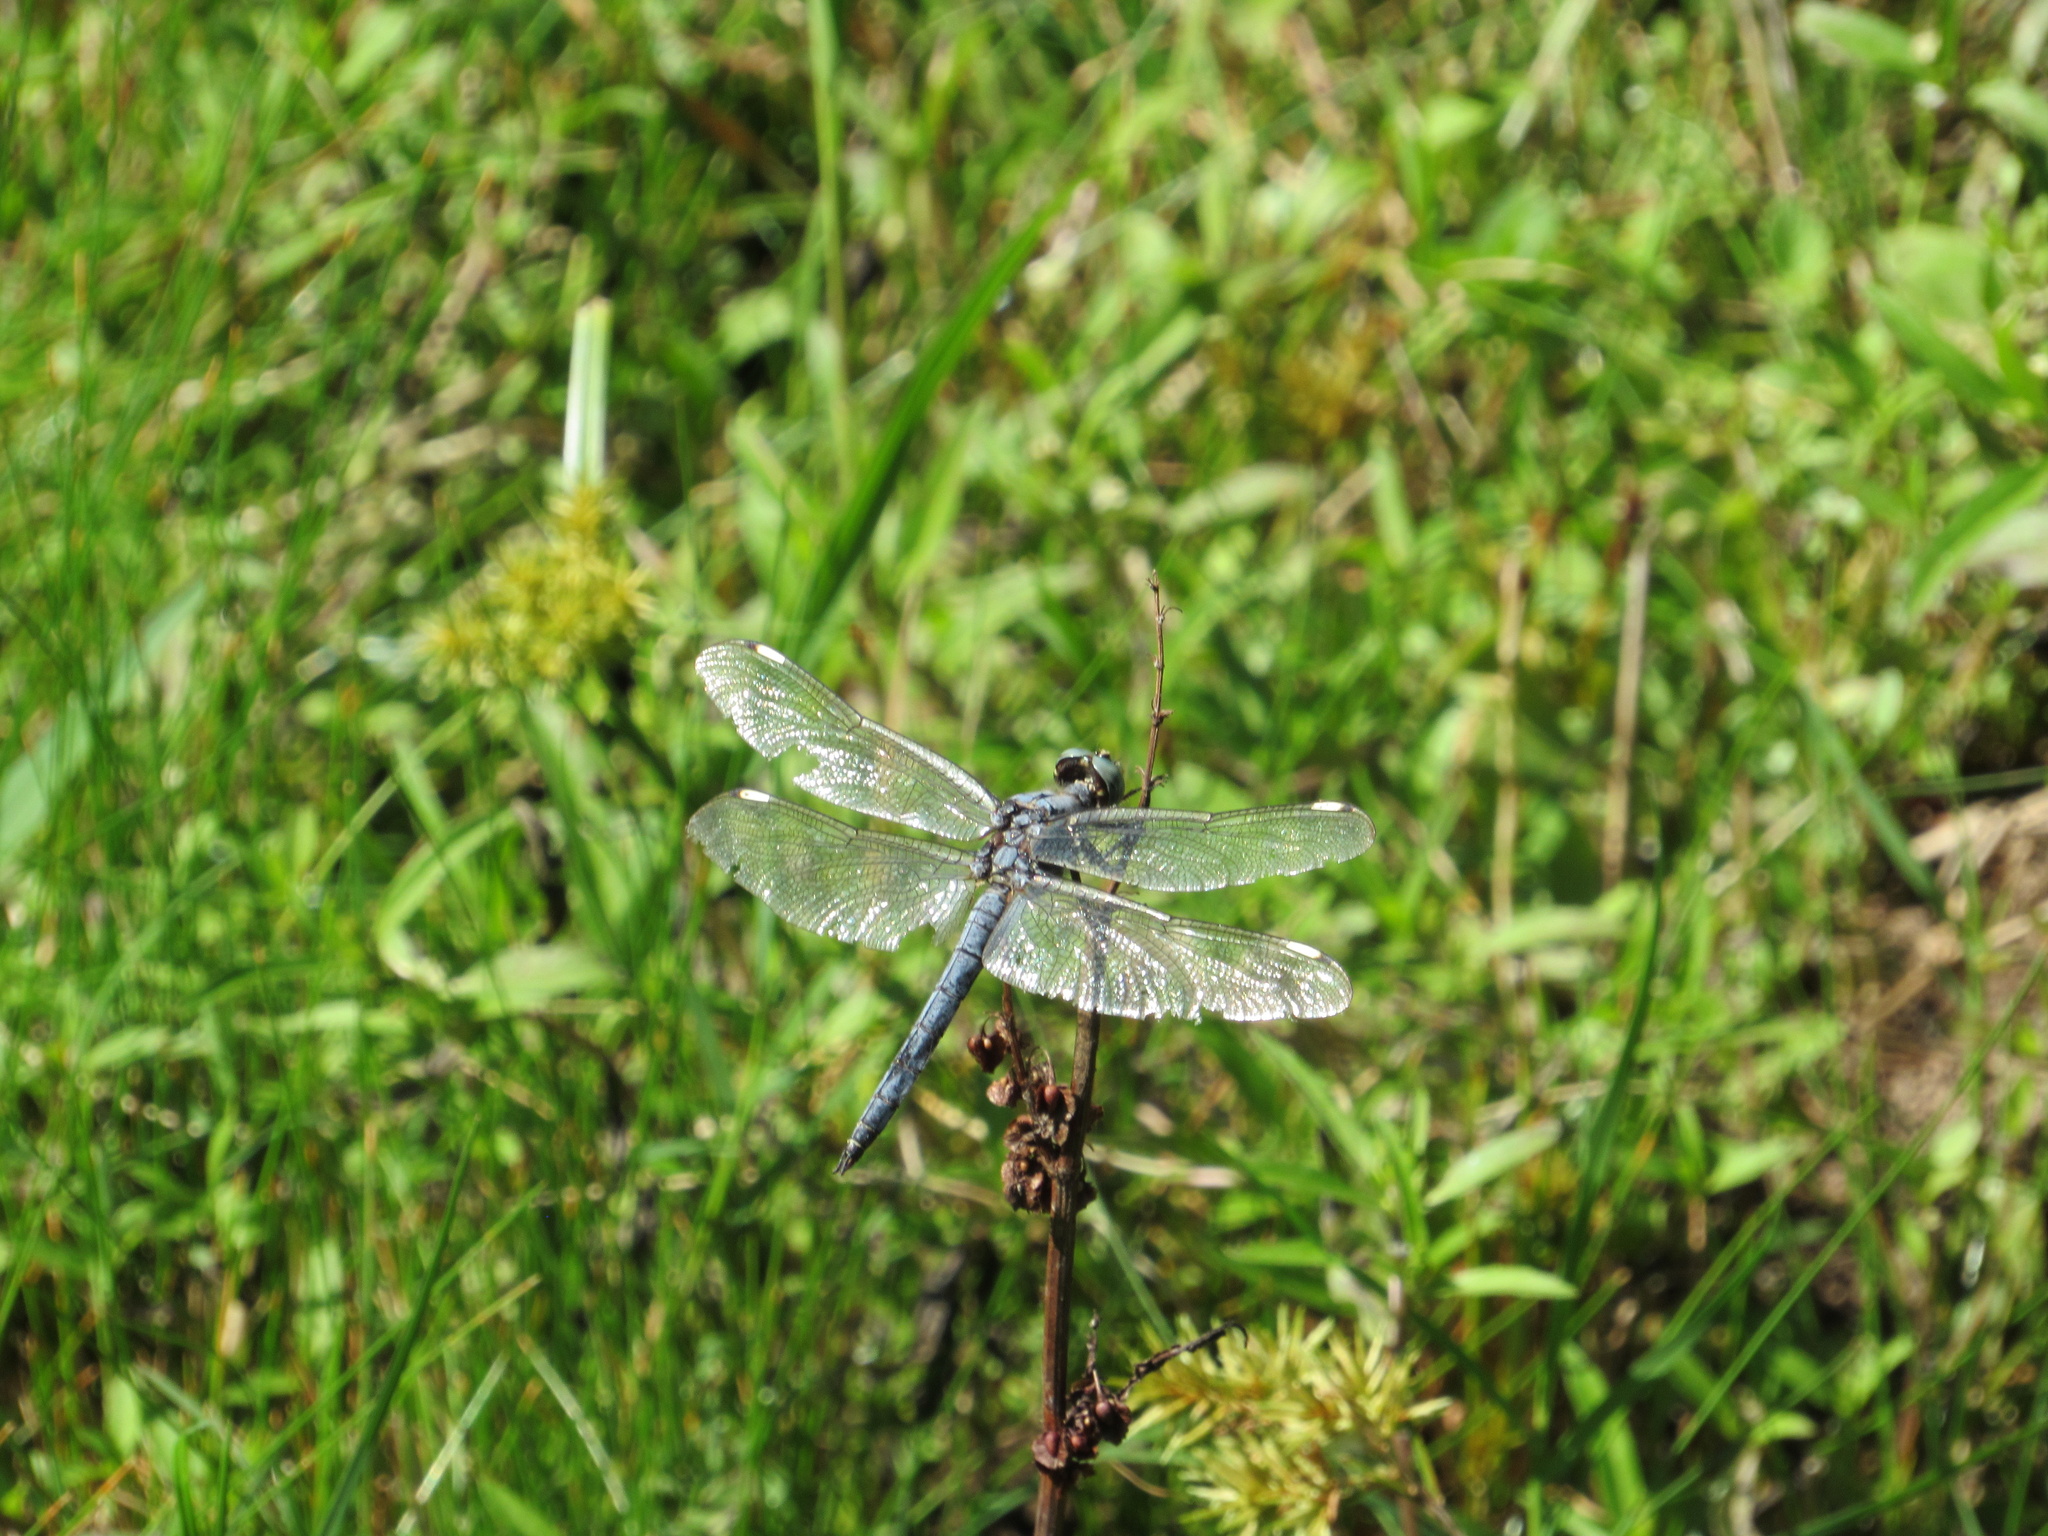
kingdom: Animalia
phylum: Arthropoda
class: Insecta
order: Odonata
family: Libellulidae
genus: Libellula
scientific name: Libellula comanche
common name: Comanche skimmer
